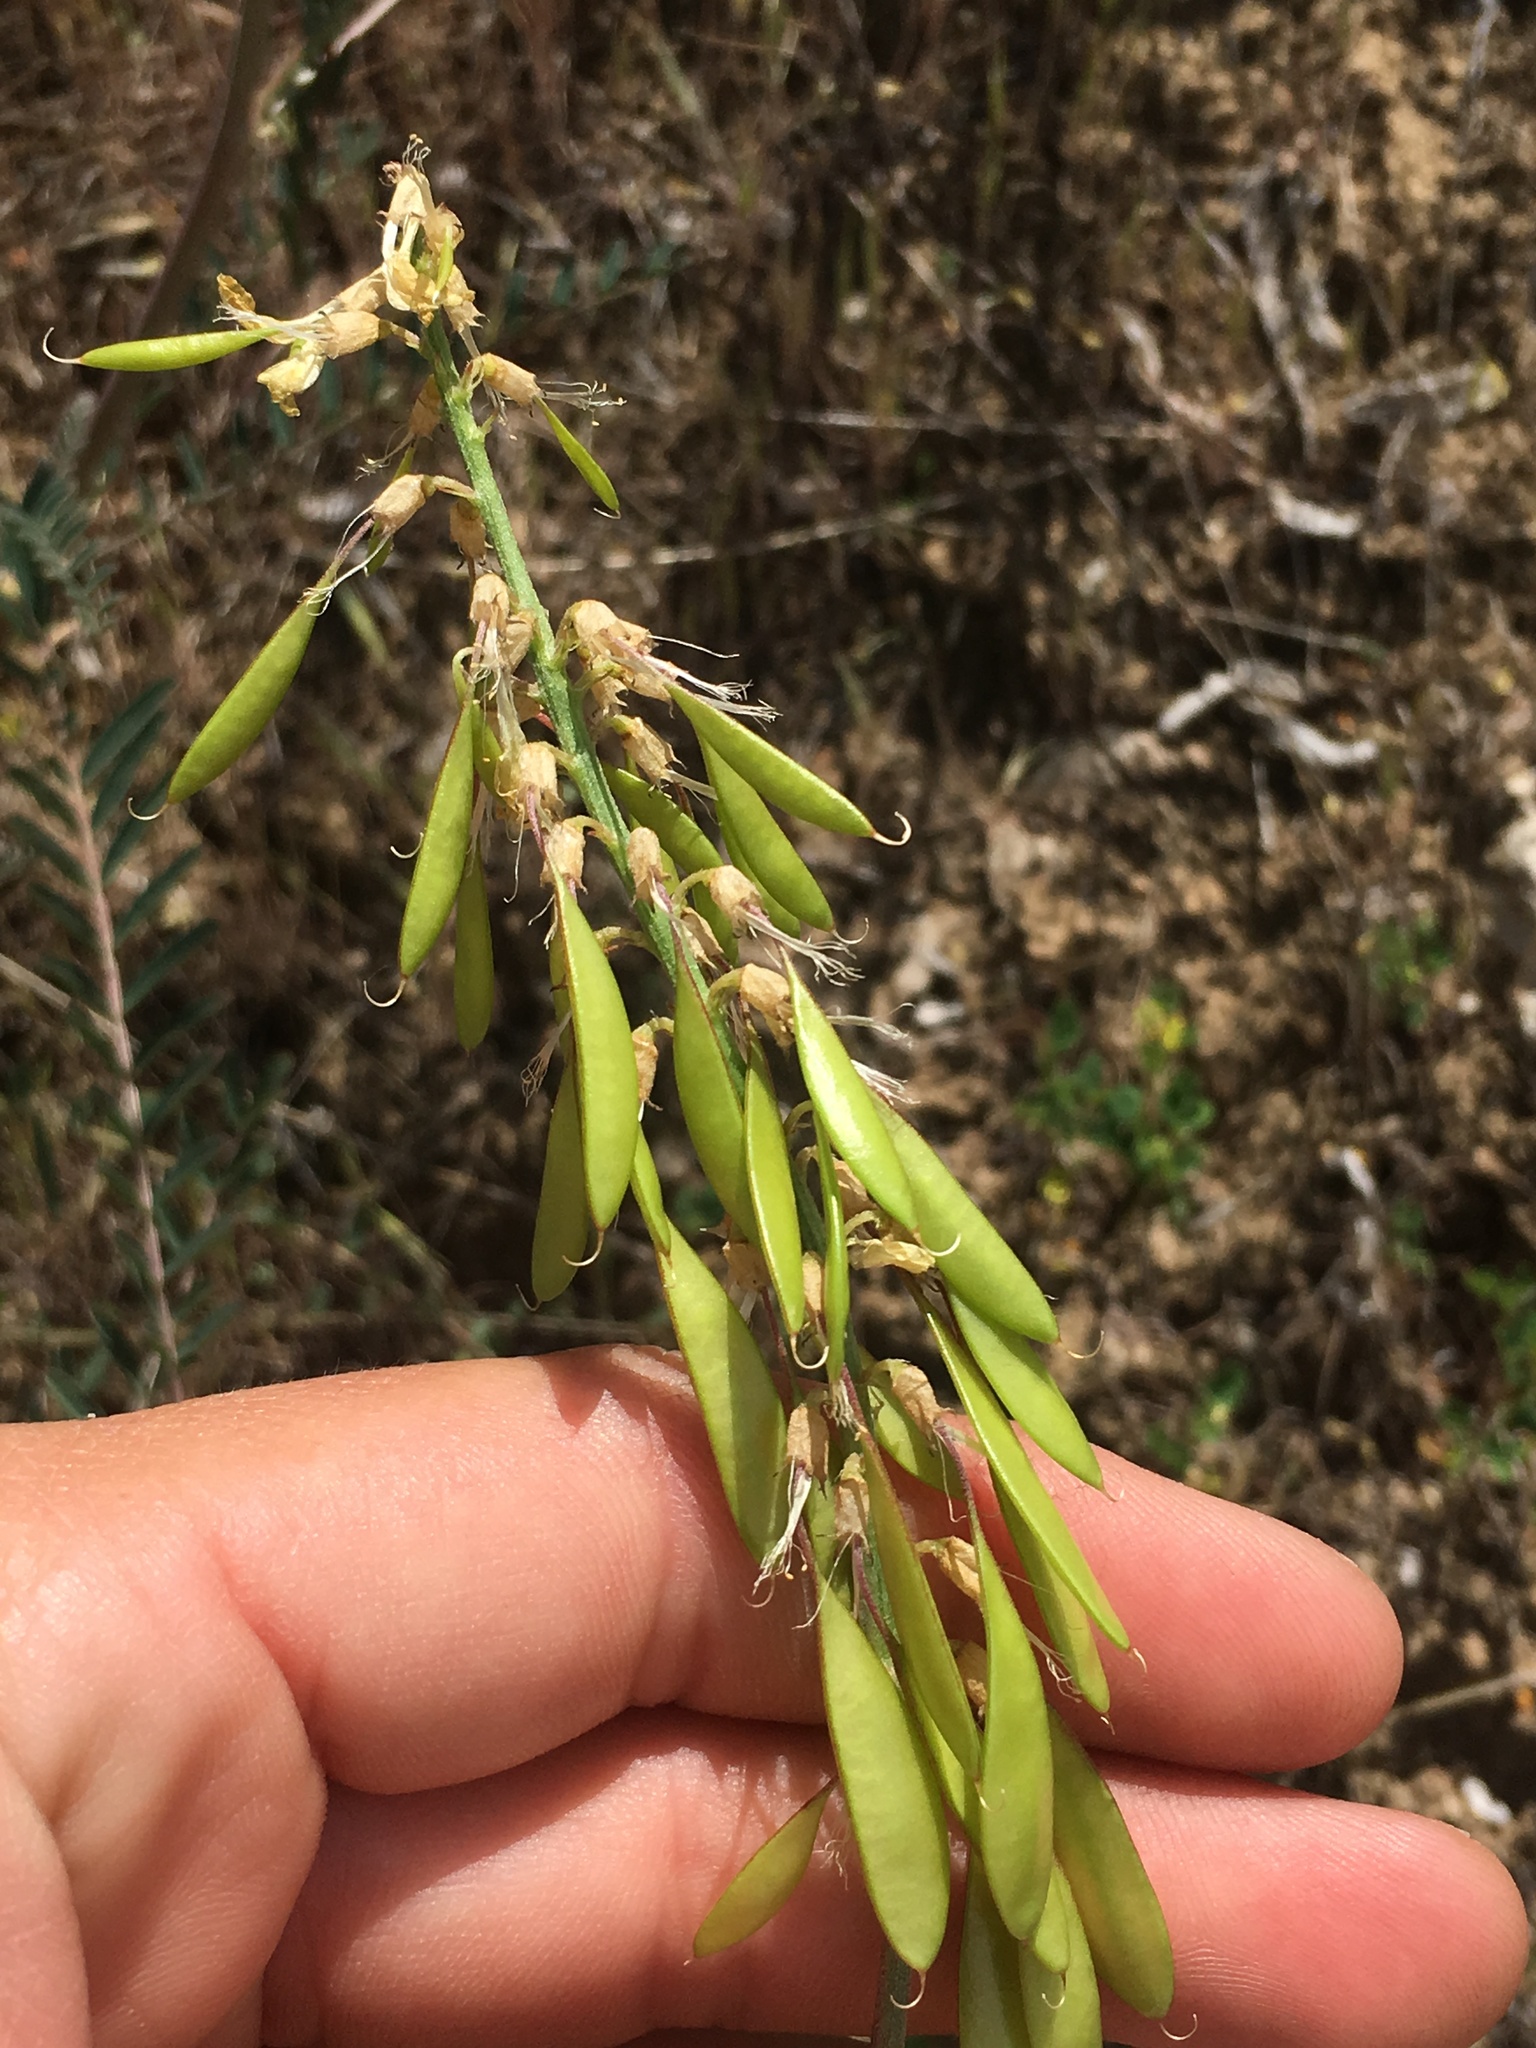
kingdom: Plantae
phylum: Tracheophyta
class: Magnoliopsida
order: Fabales
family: Fabaceae
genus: Astragalus
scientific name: Astragalus trichopodus
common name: Santa barbara milk-vetch
